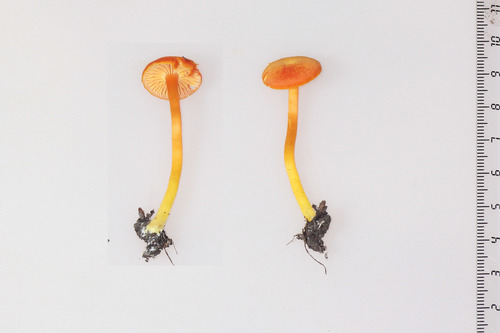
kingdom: Fungi
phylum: Basidiomycota
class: Agaricomycetes
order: Agaricales
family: Hygrophoraceae
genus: Hygrocybe
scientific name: Hygrocybe cantharellus
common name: Goblet waxcap
